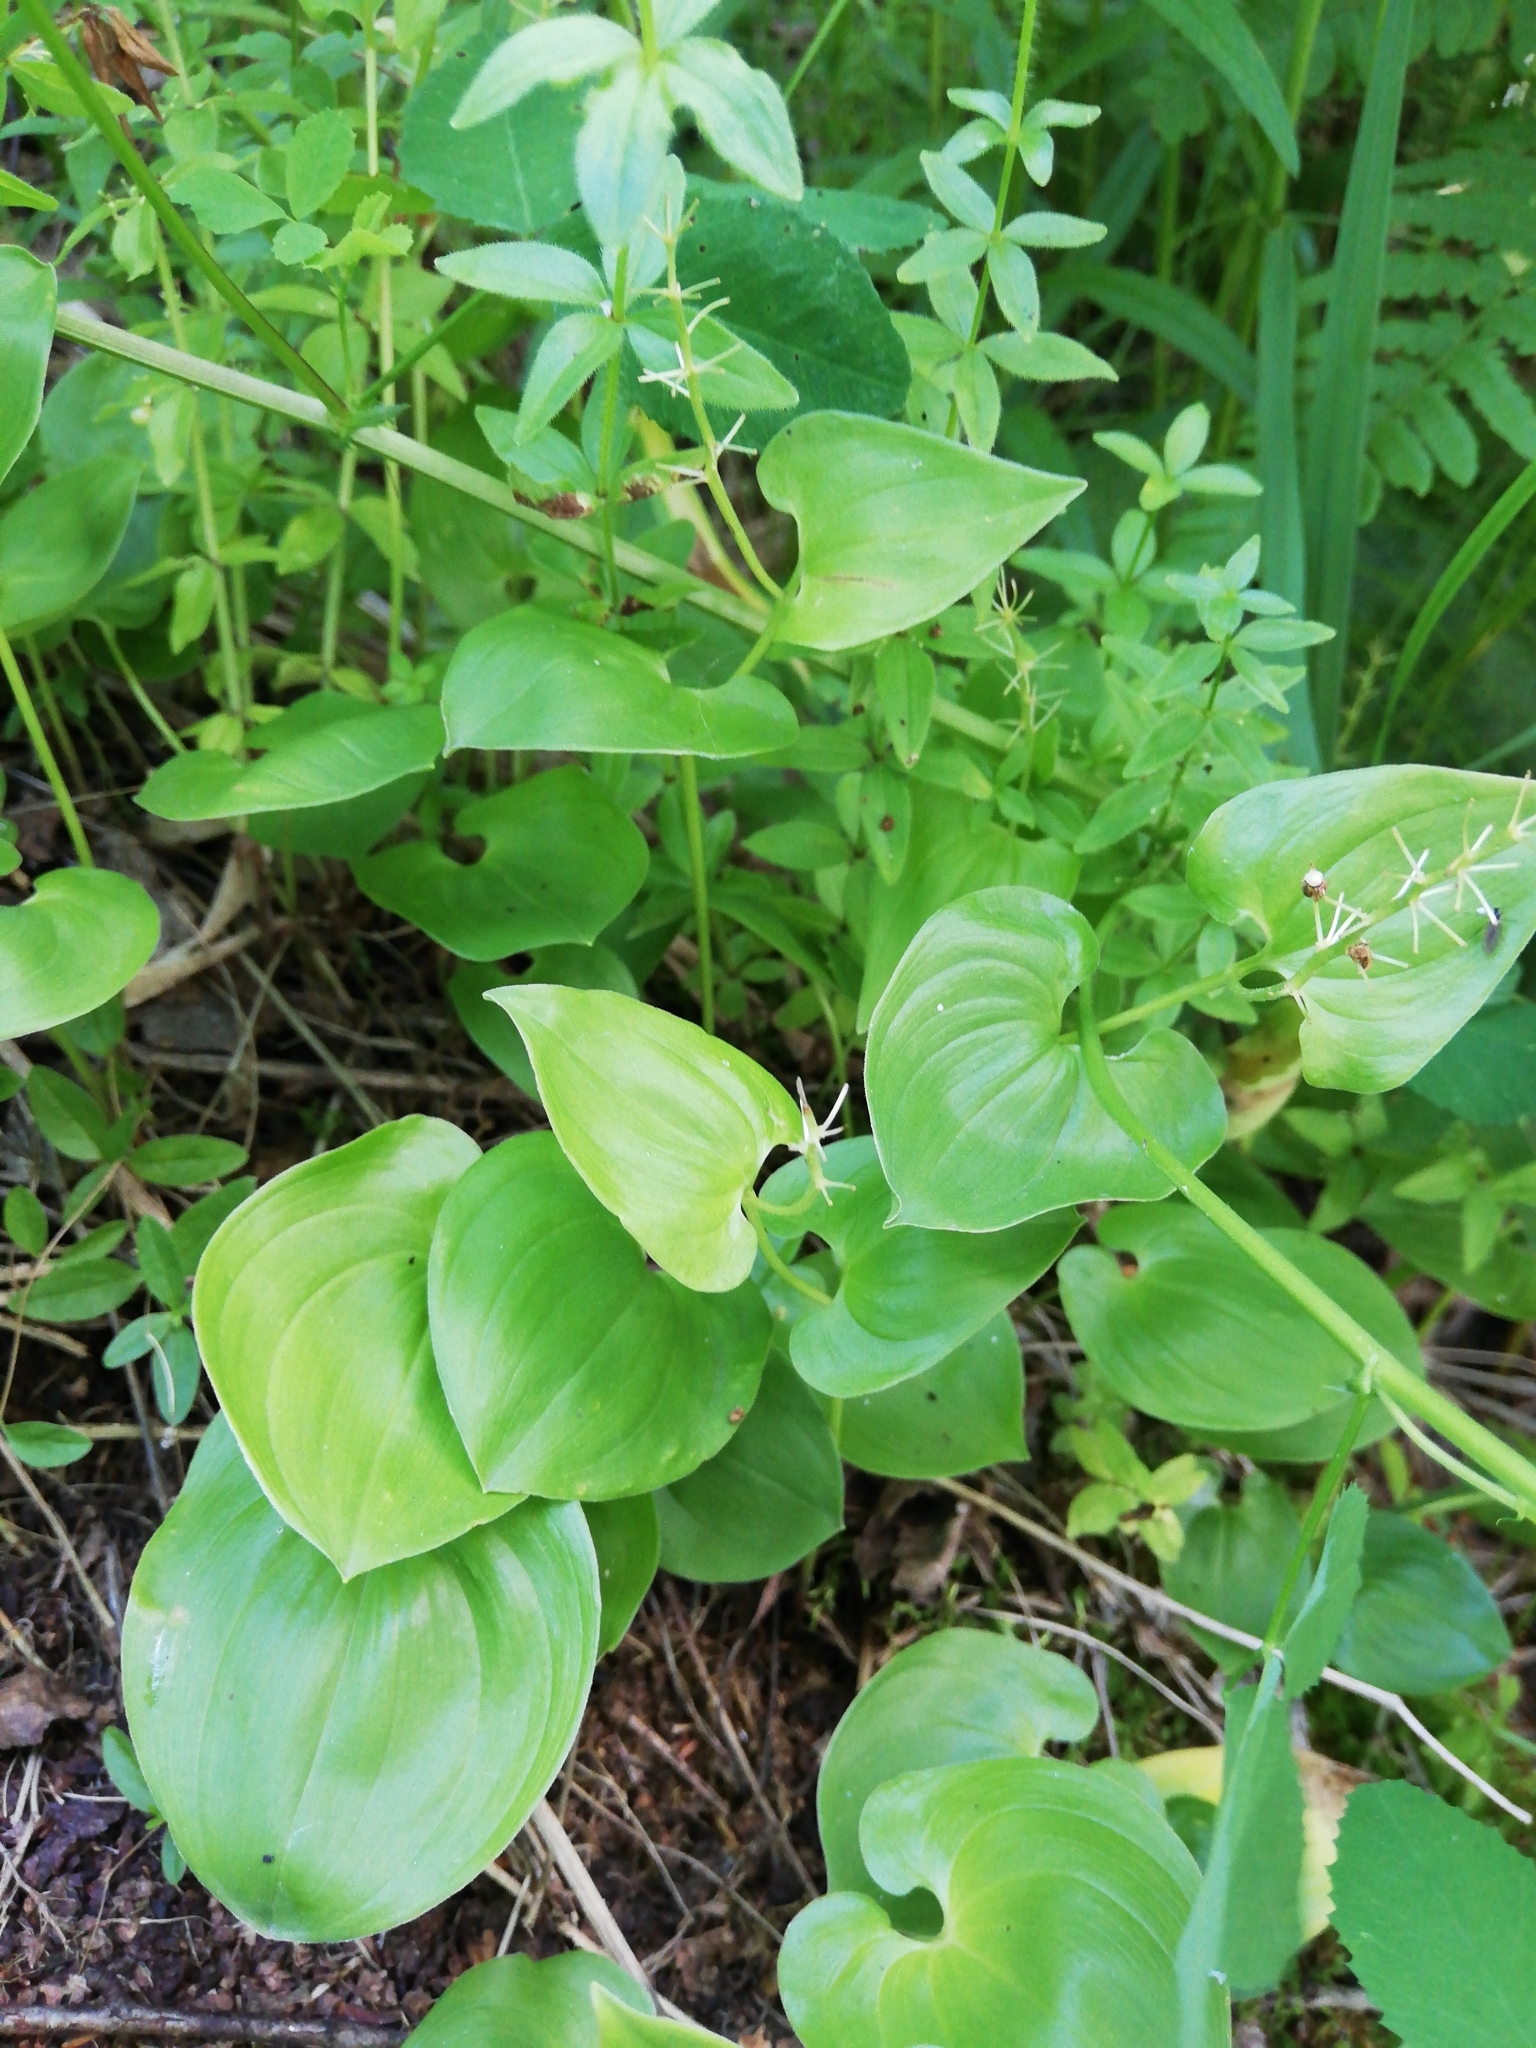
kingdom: Plantae
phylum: Tracheophyta
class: Liliopsida
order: Asparagales
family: Asparagaceae
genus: Maianthemum
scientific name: Maianthemum bifolium
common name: May lily
